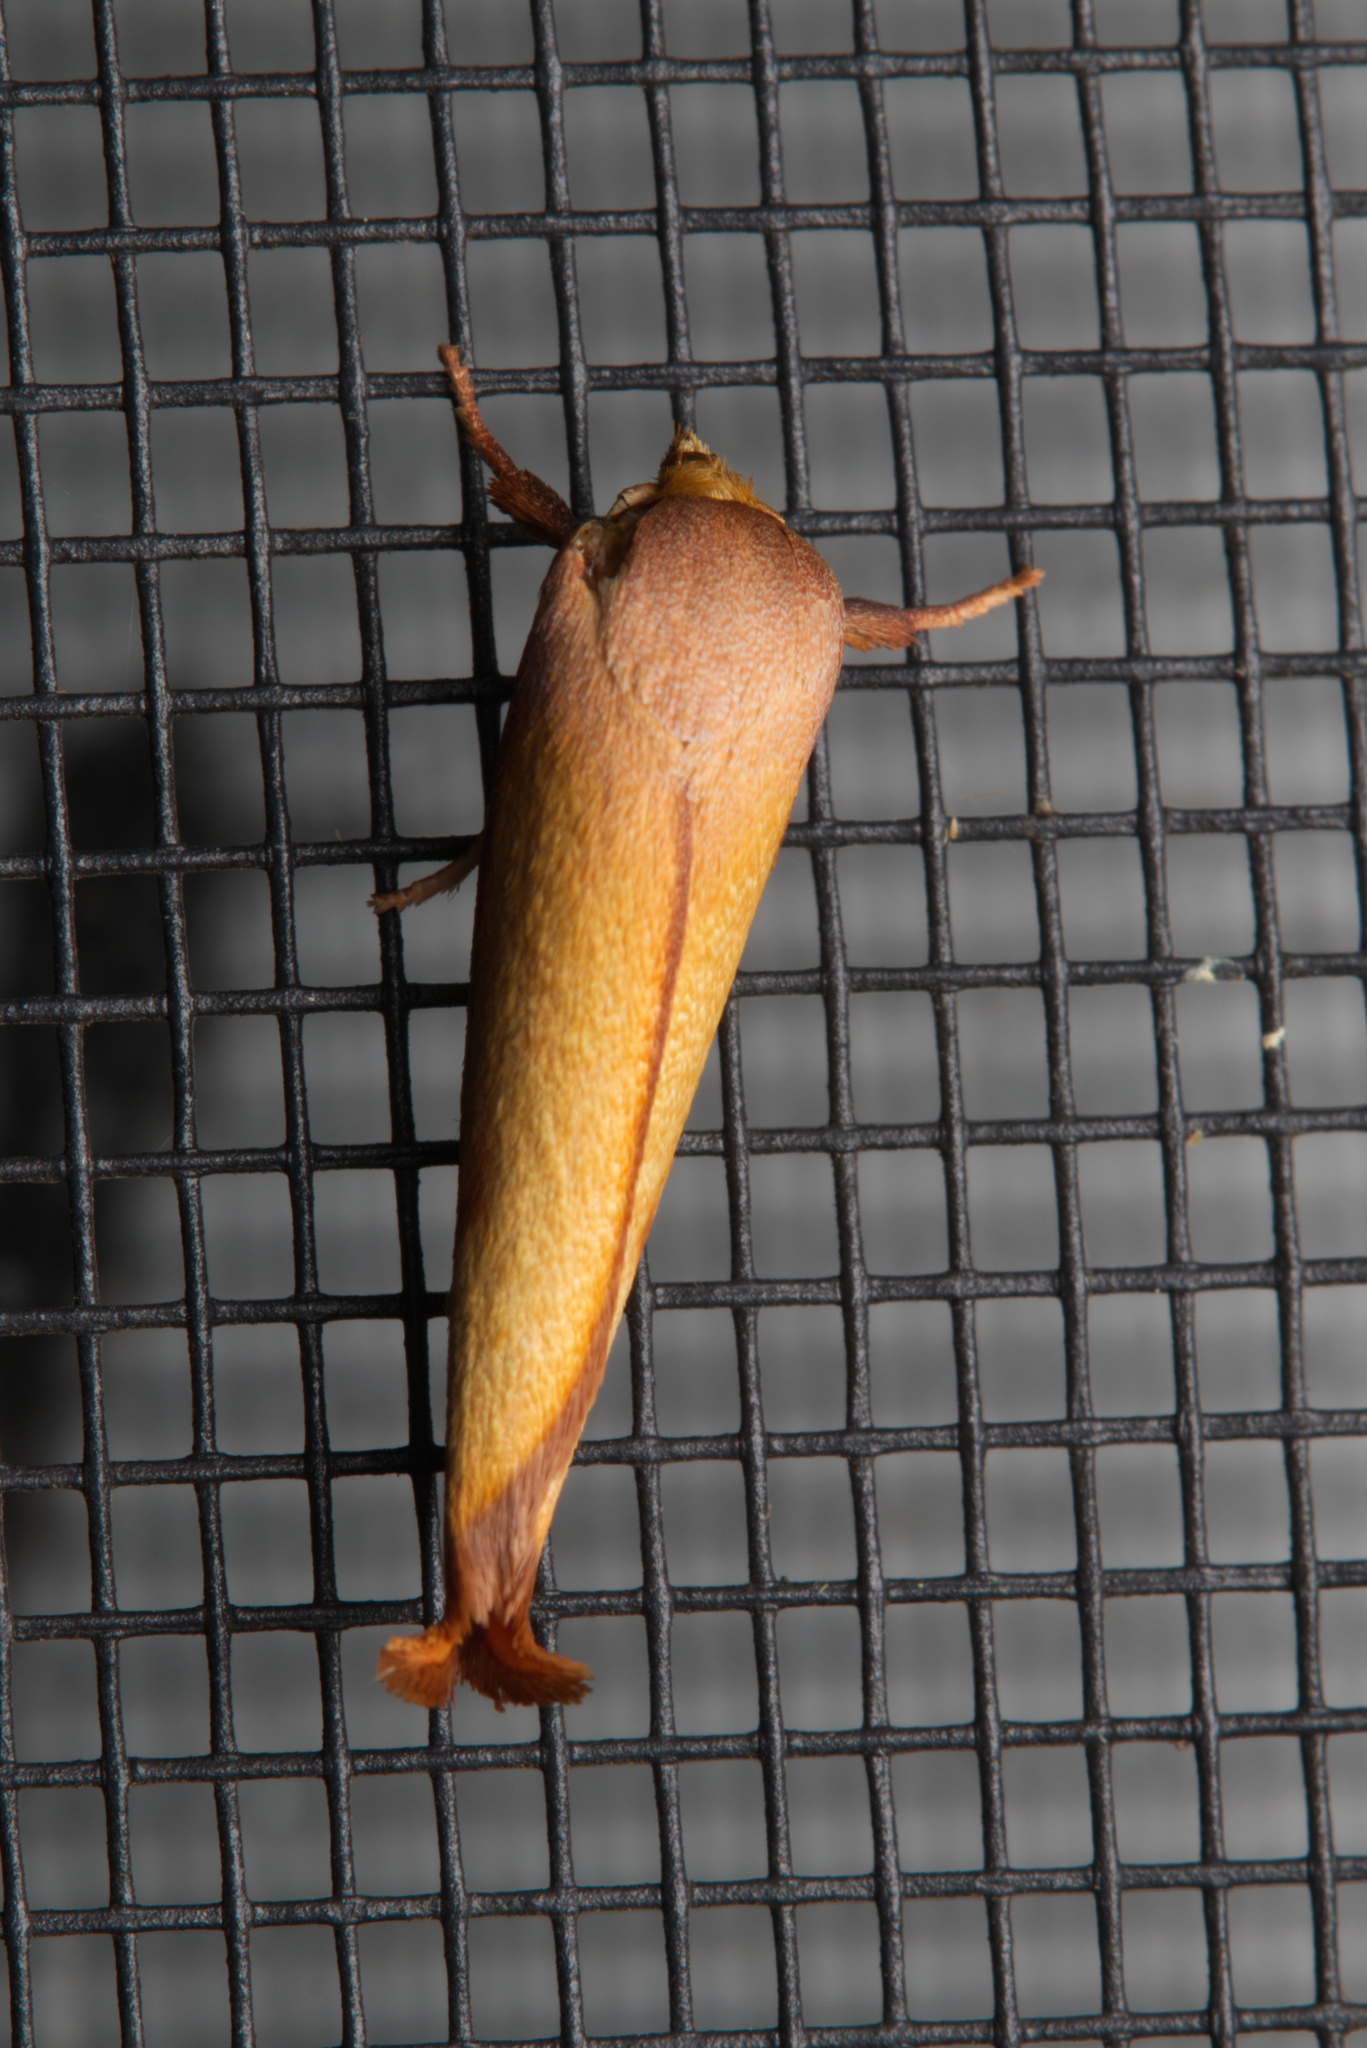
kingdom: Animalia
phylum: Arthropoda
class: Insecta
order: Lepidoptera
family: Oecophoridae
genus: Wingia
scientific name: Wingia aurata
